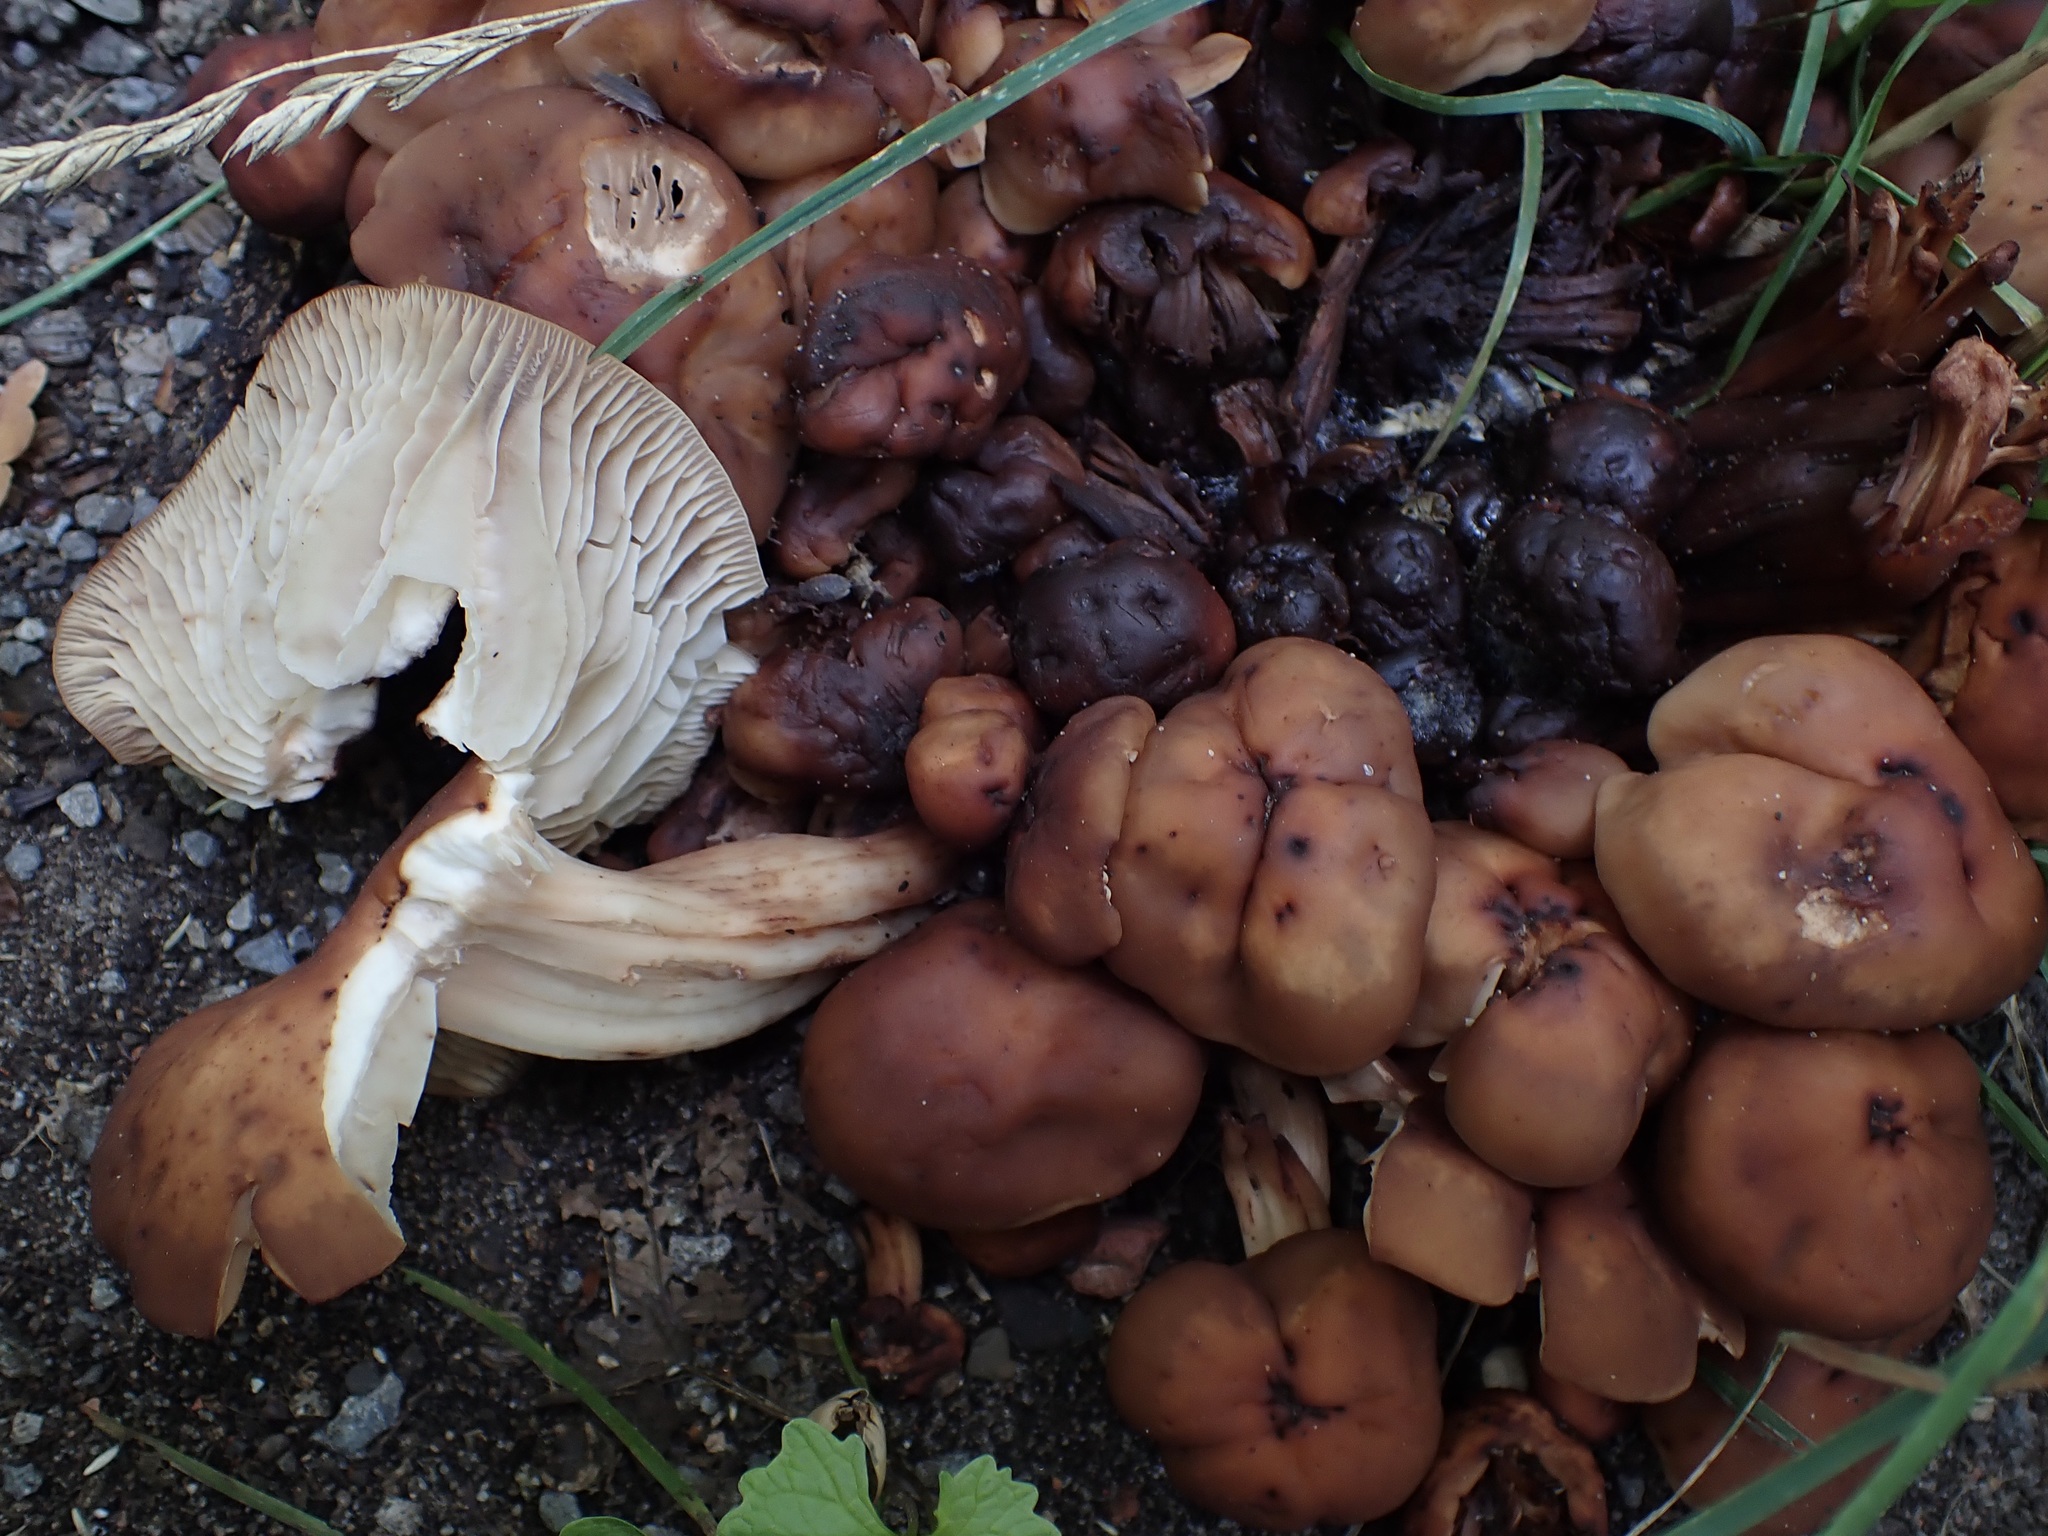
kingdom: Fungi
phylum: Basidiomycota
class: Agaricomycetes
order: Agaricales
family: Omphalotaceae
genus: Gymnopus
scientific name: Gymnopus fusipes
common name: Spindle shank
